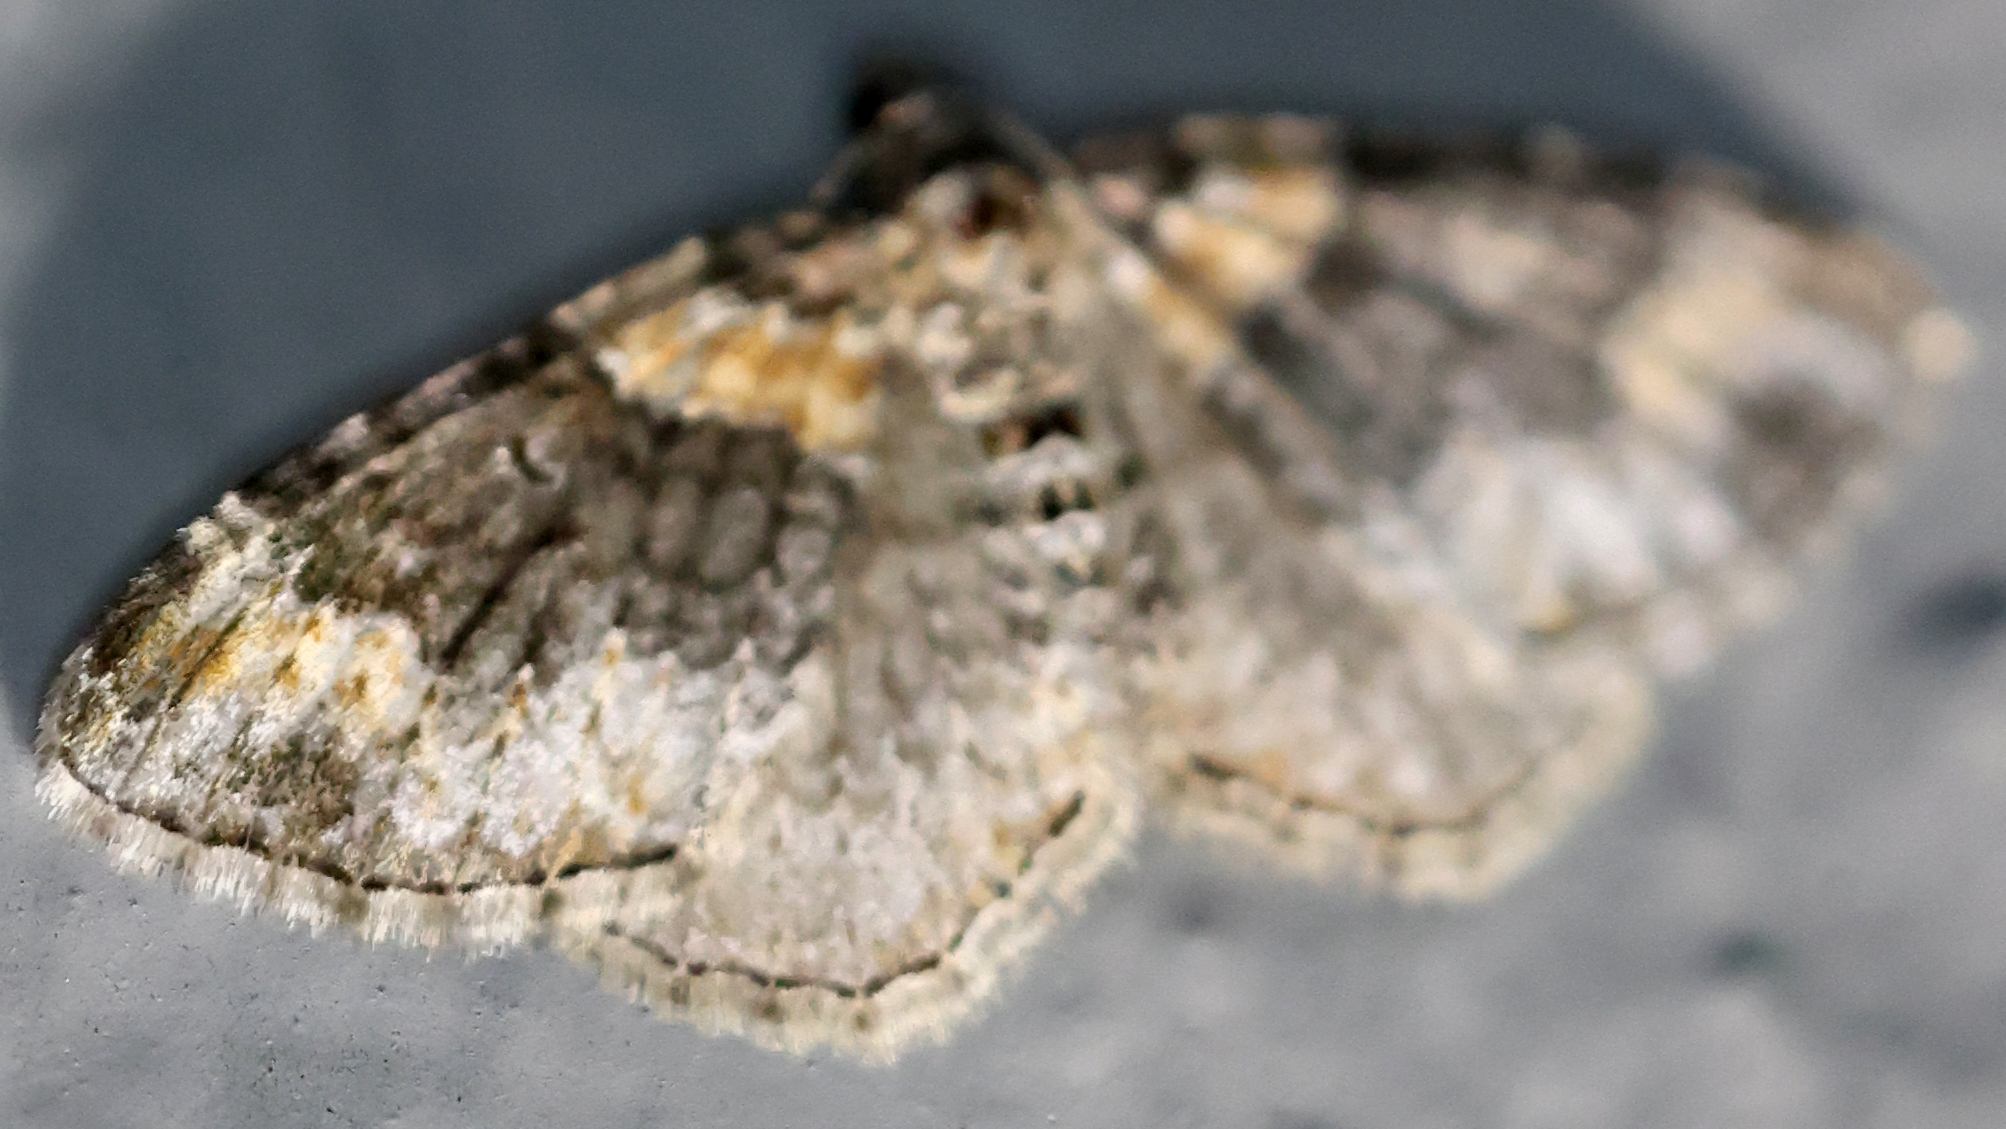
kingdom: Animalia
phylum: Arthropoda
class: Insecta
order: Lepidoptera
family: Geometridae
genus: Xanthorhoe
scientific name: Xanthorhoe ferrugata
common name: Dark-barred twin-spot carpet
